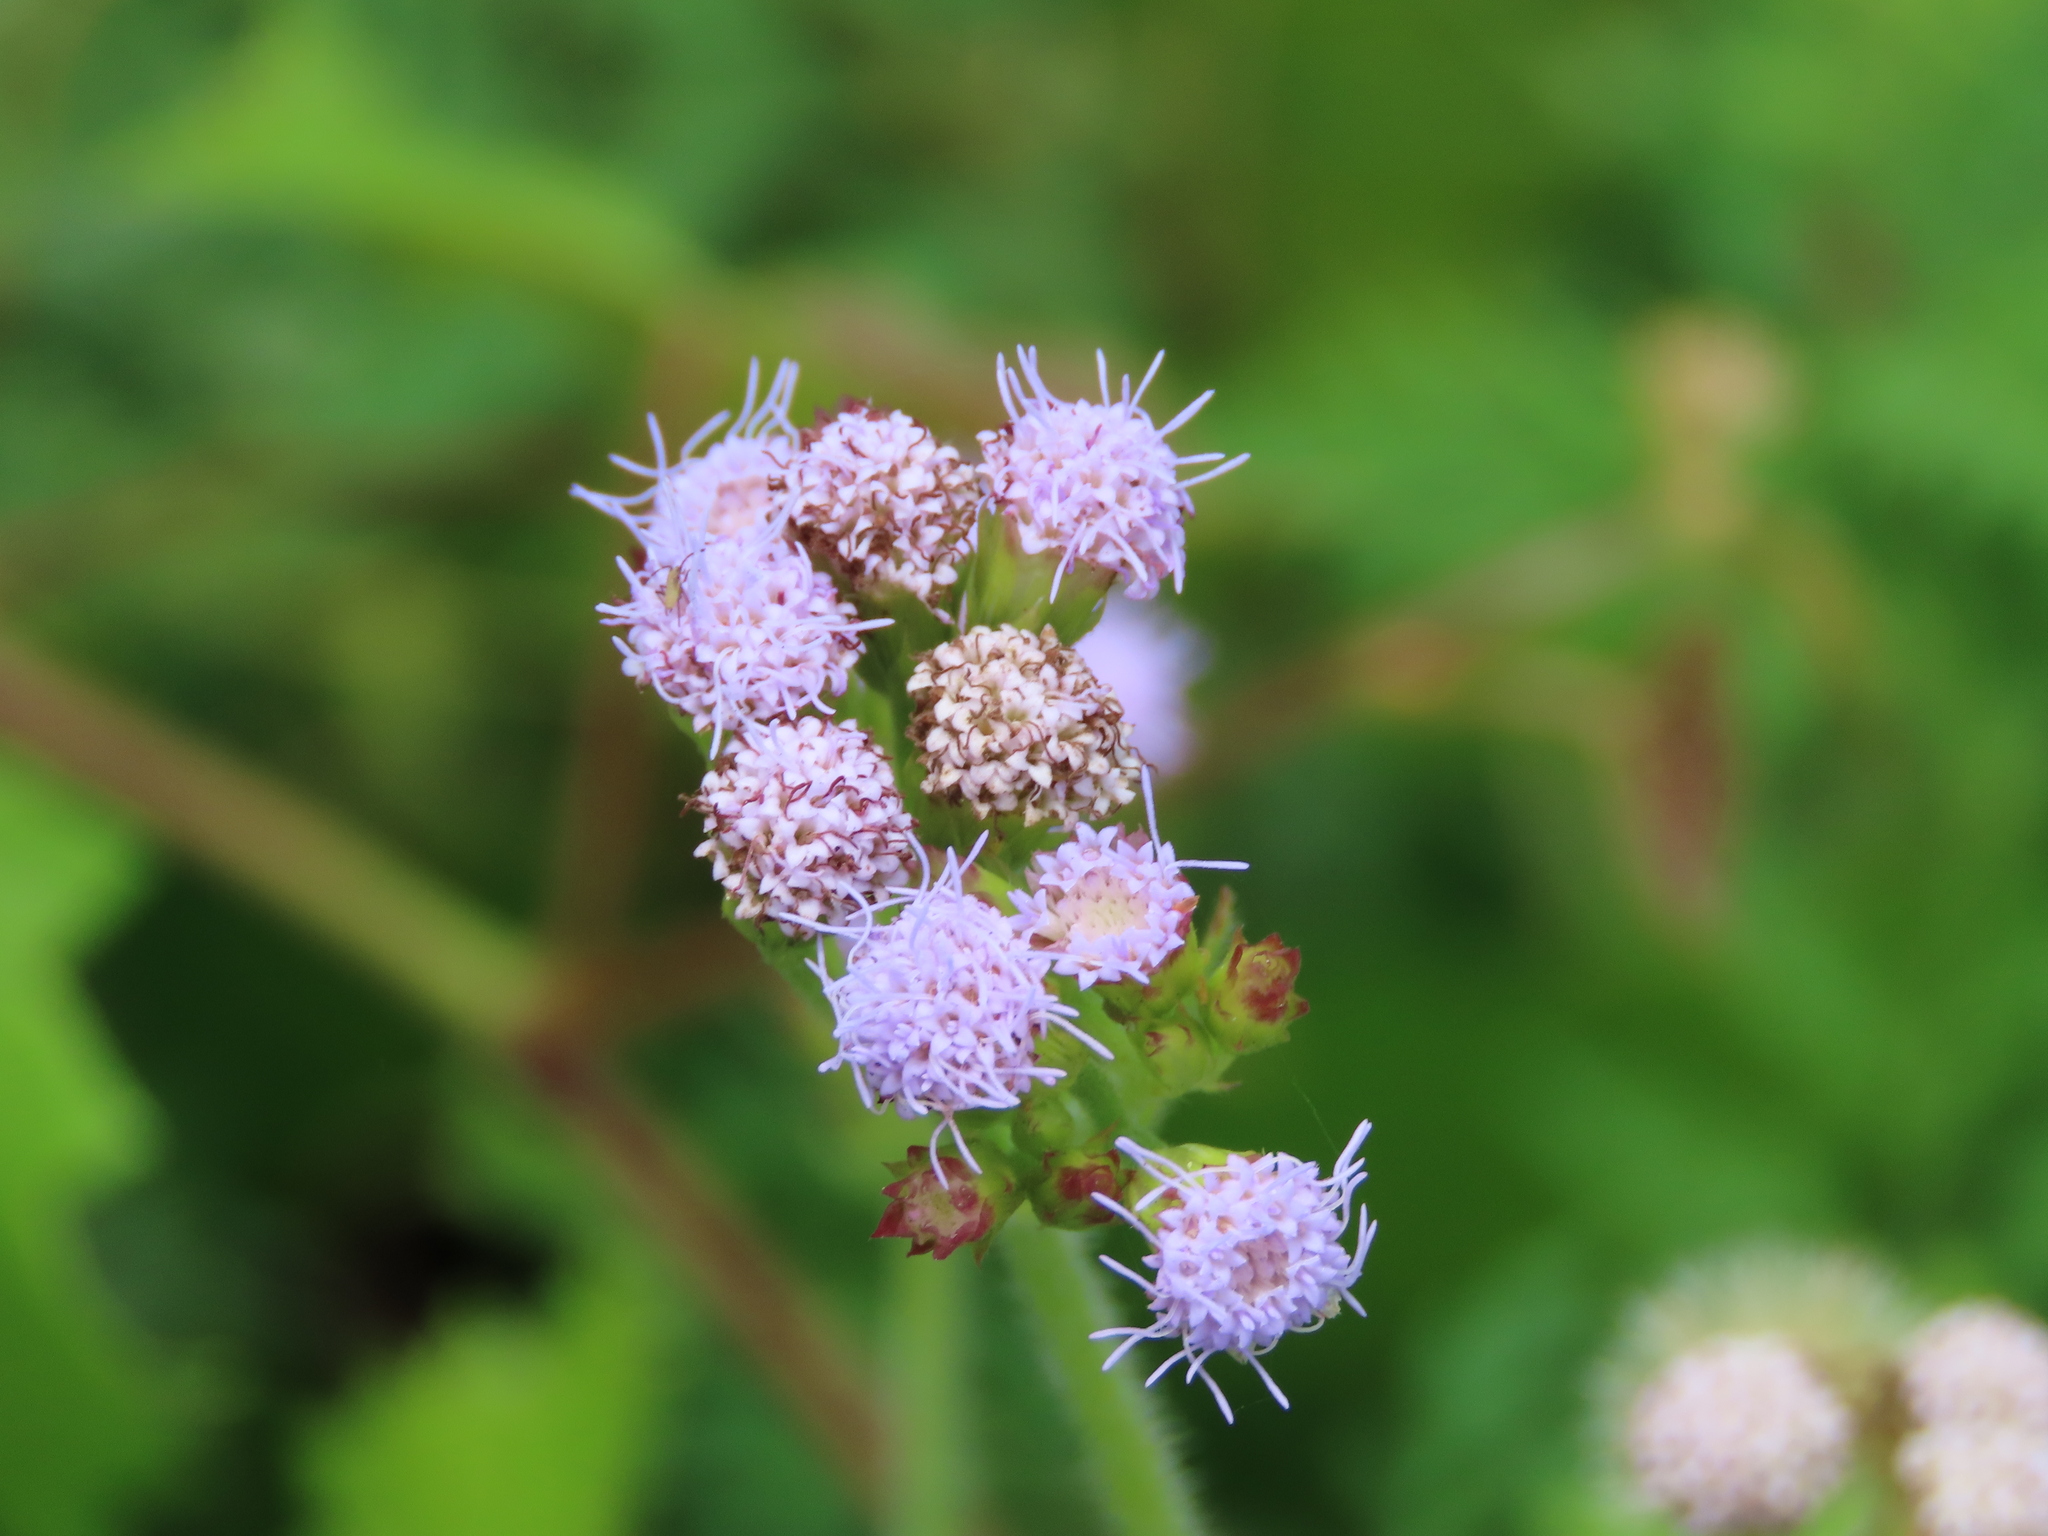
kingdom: Plantae
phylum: Tracheophyta
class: Magnoliopsida
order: Asterales
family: Asteraceae
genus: Praxelis
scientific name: Praxelis clematidea
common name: Praxelis
